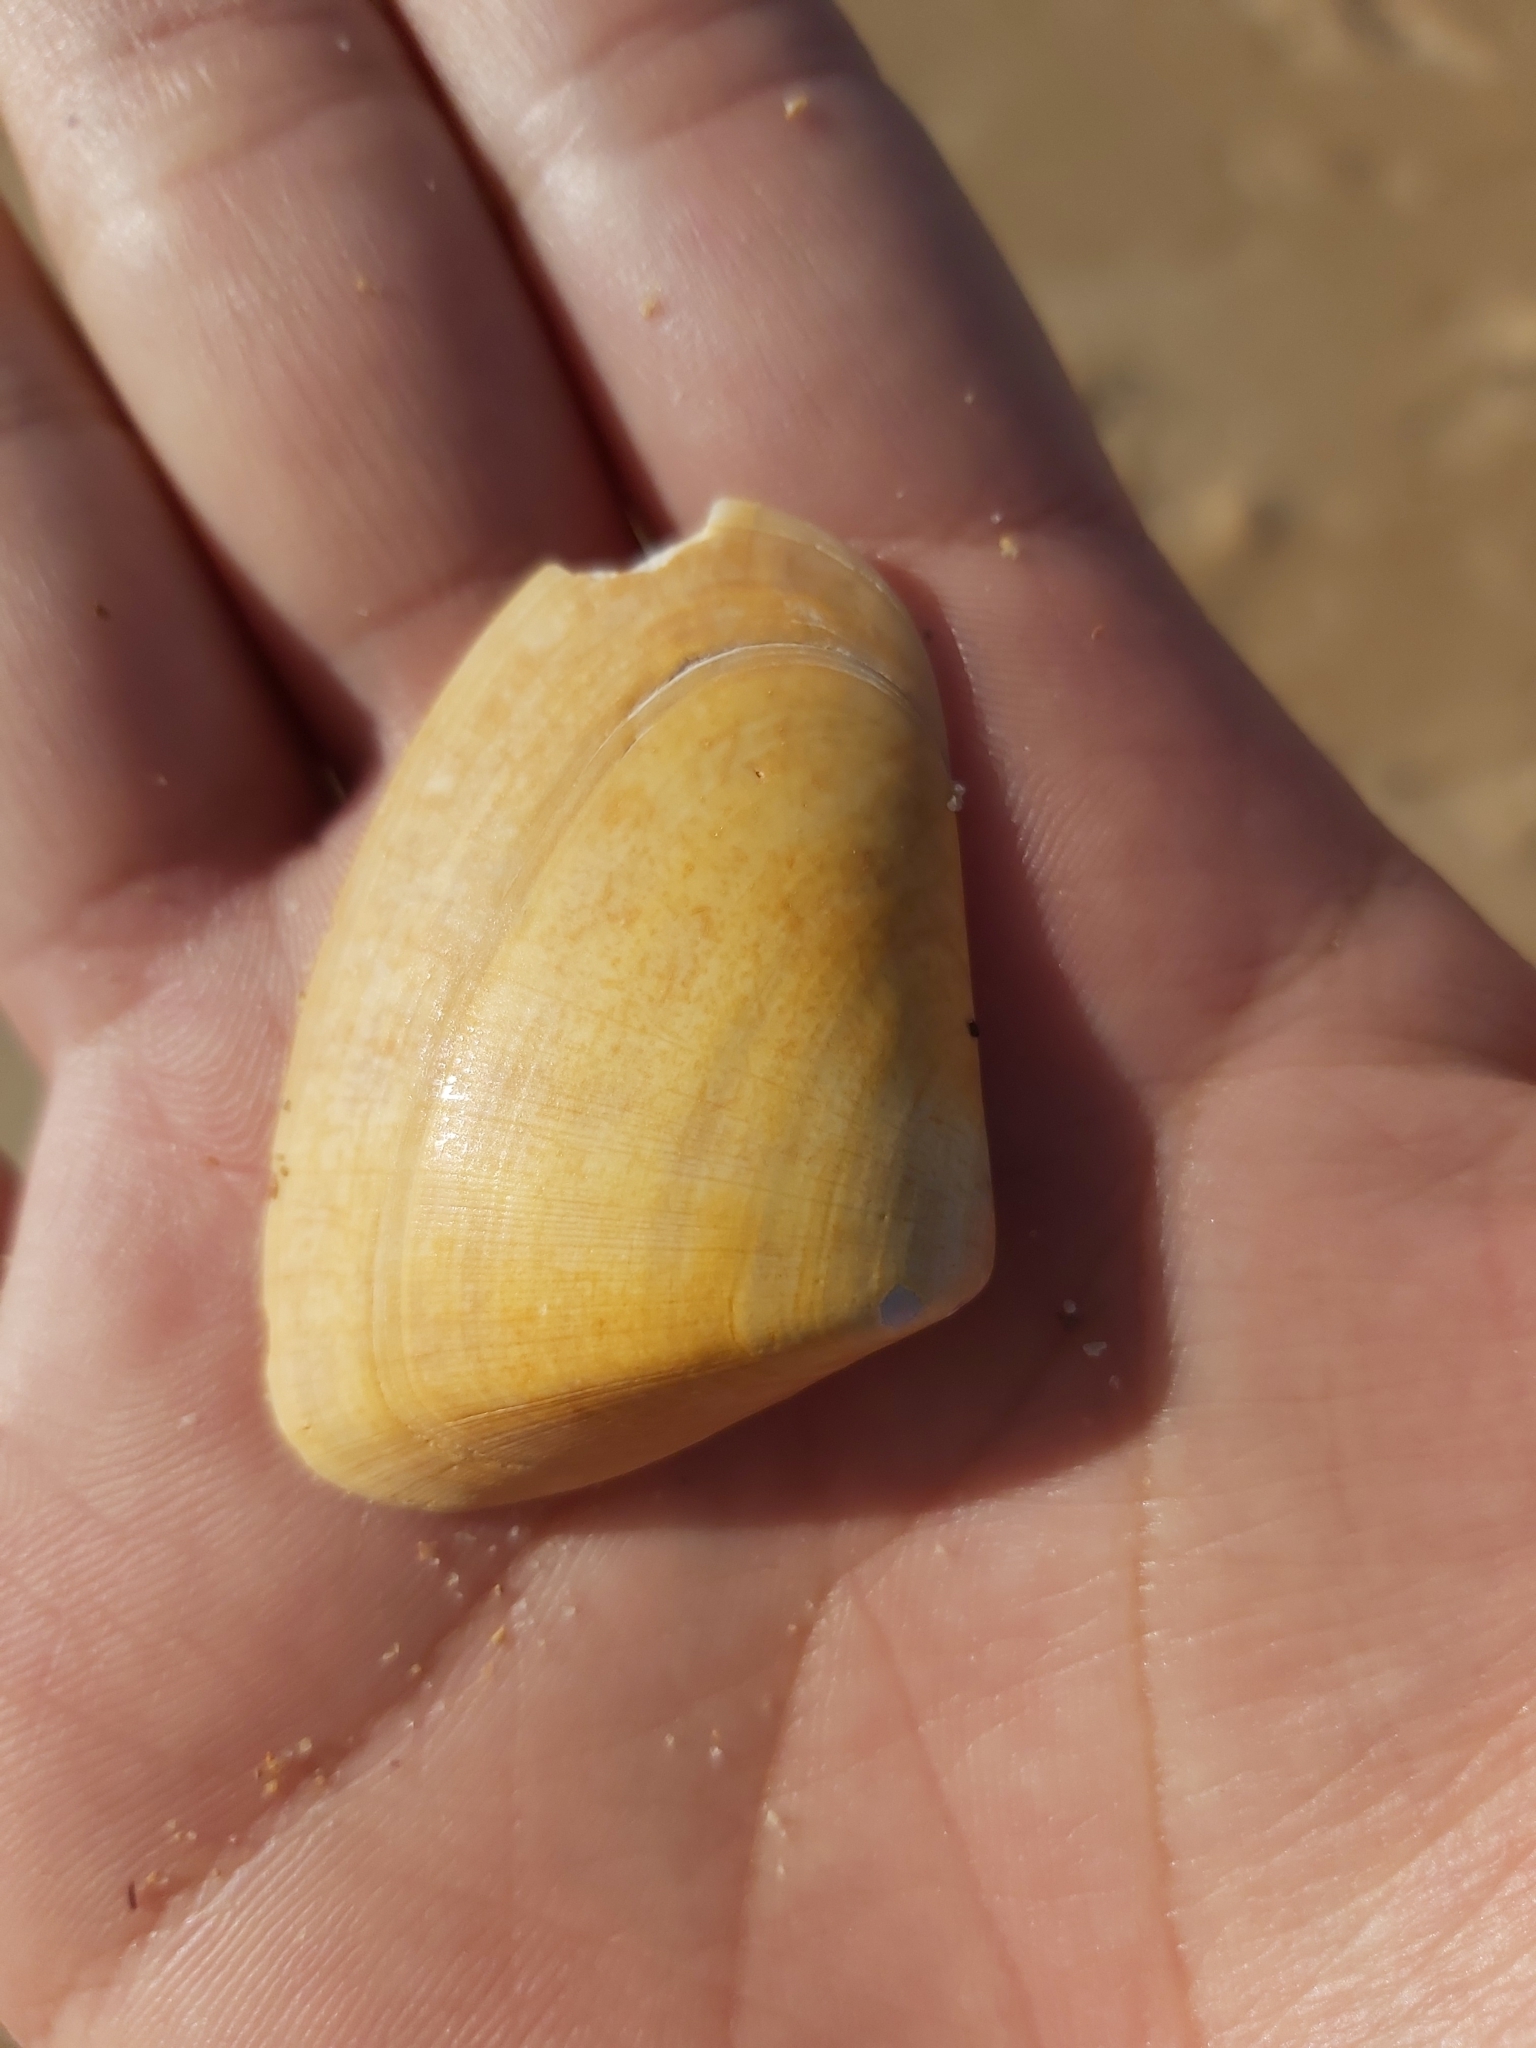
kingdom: Animalia
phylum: Mollusca
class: Bivalvia
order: Cardiida
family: Donacidae
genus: Latona
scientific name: Latona deltoides
